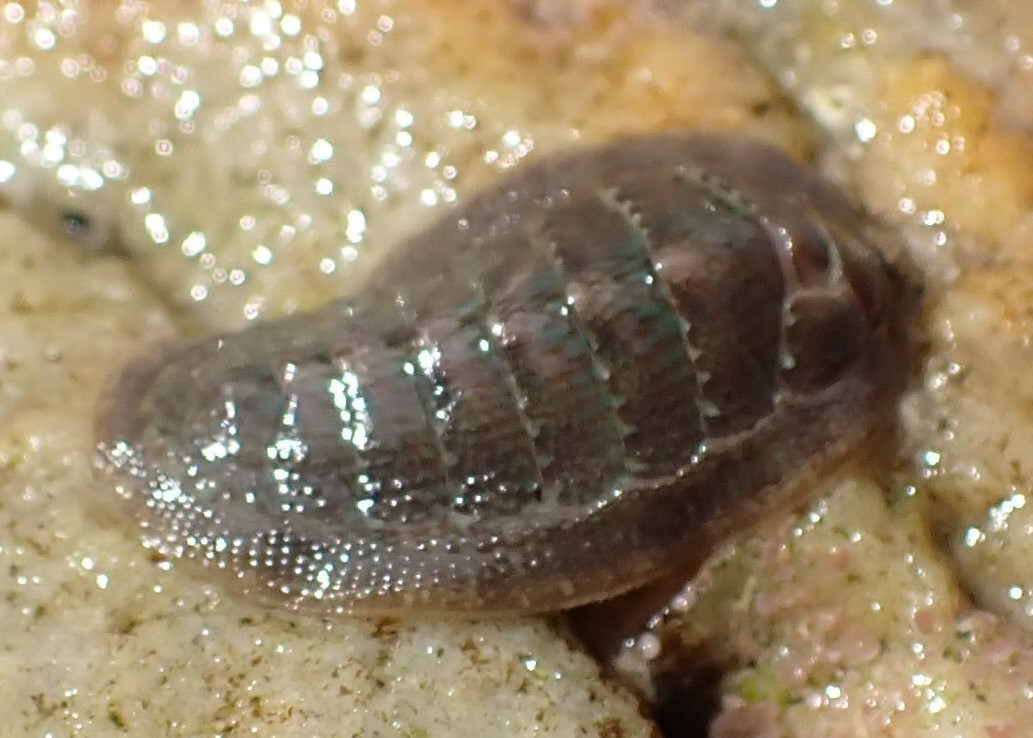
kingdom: Animalia
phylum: Mollusca
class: Polyplacophora
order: Chitonida
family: Ischnochitonidae
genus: Ischnochiton
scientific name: Ischnochiton australis
